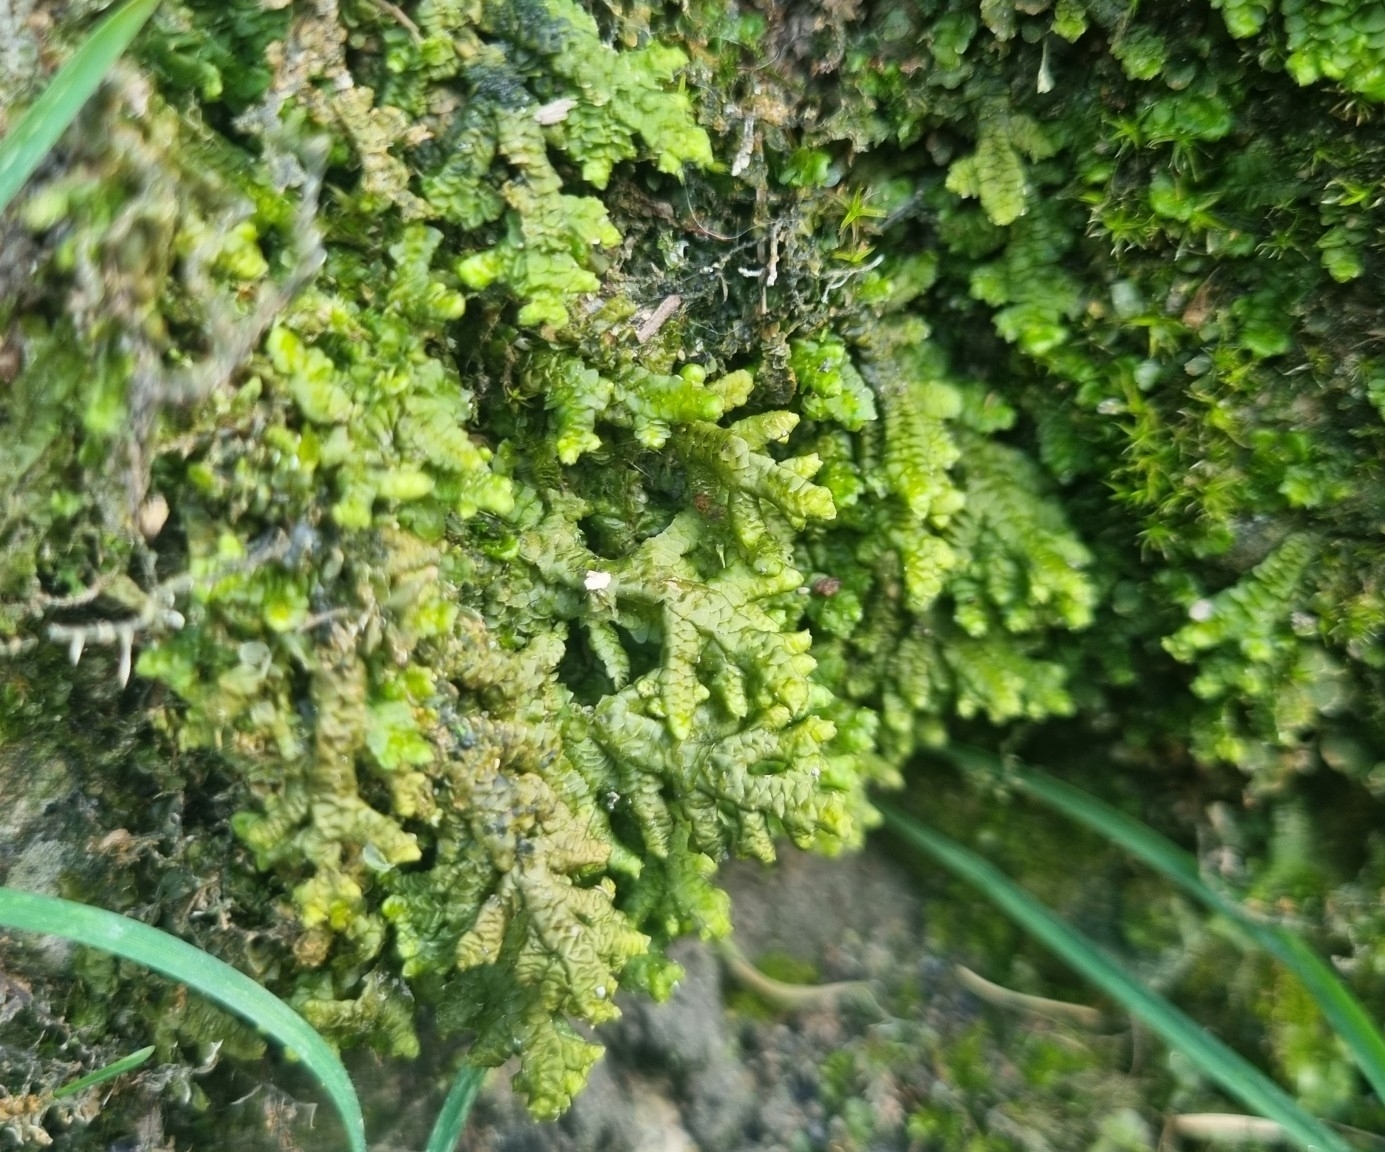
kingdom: Plantae
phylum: Marchantiophyta
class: Jungermanniopsida
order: Porellales
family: Porellaceae
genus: Porella
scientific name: Porella platyphylla
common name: Wall scalewort
